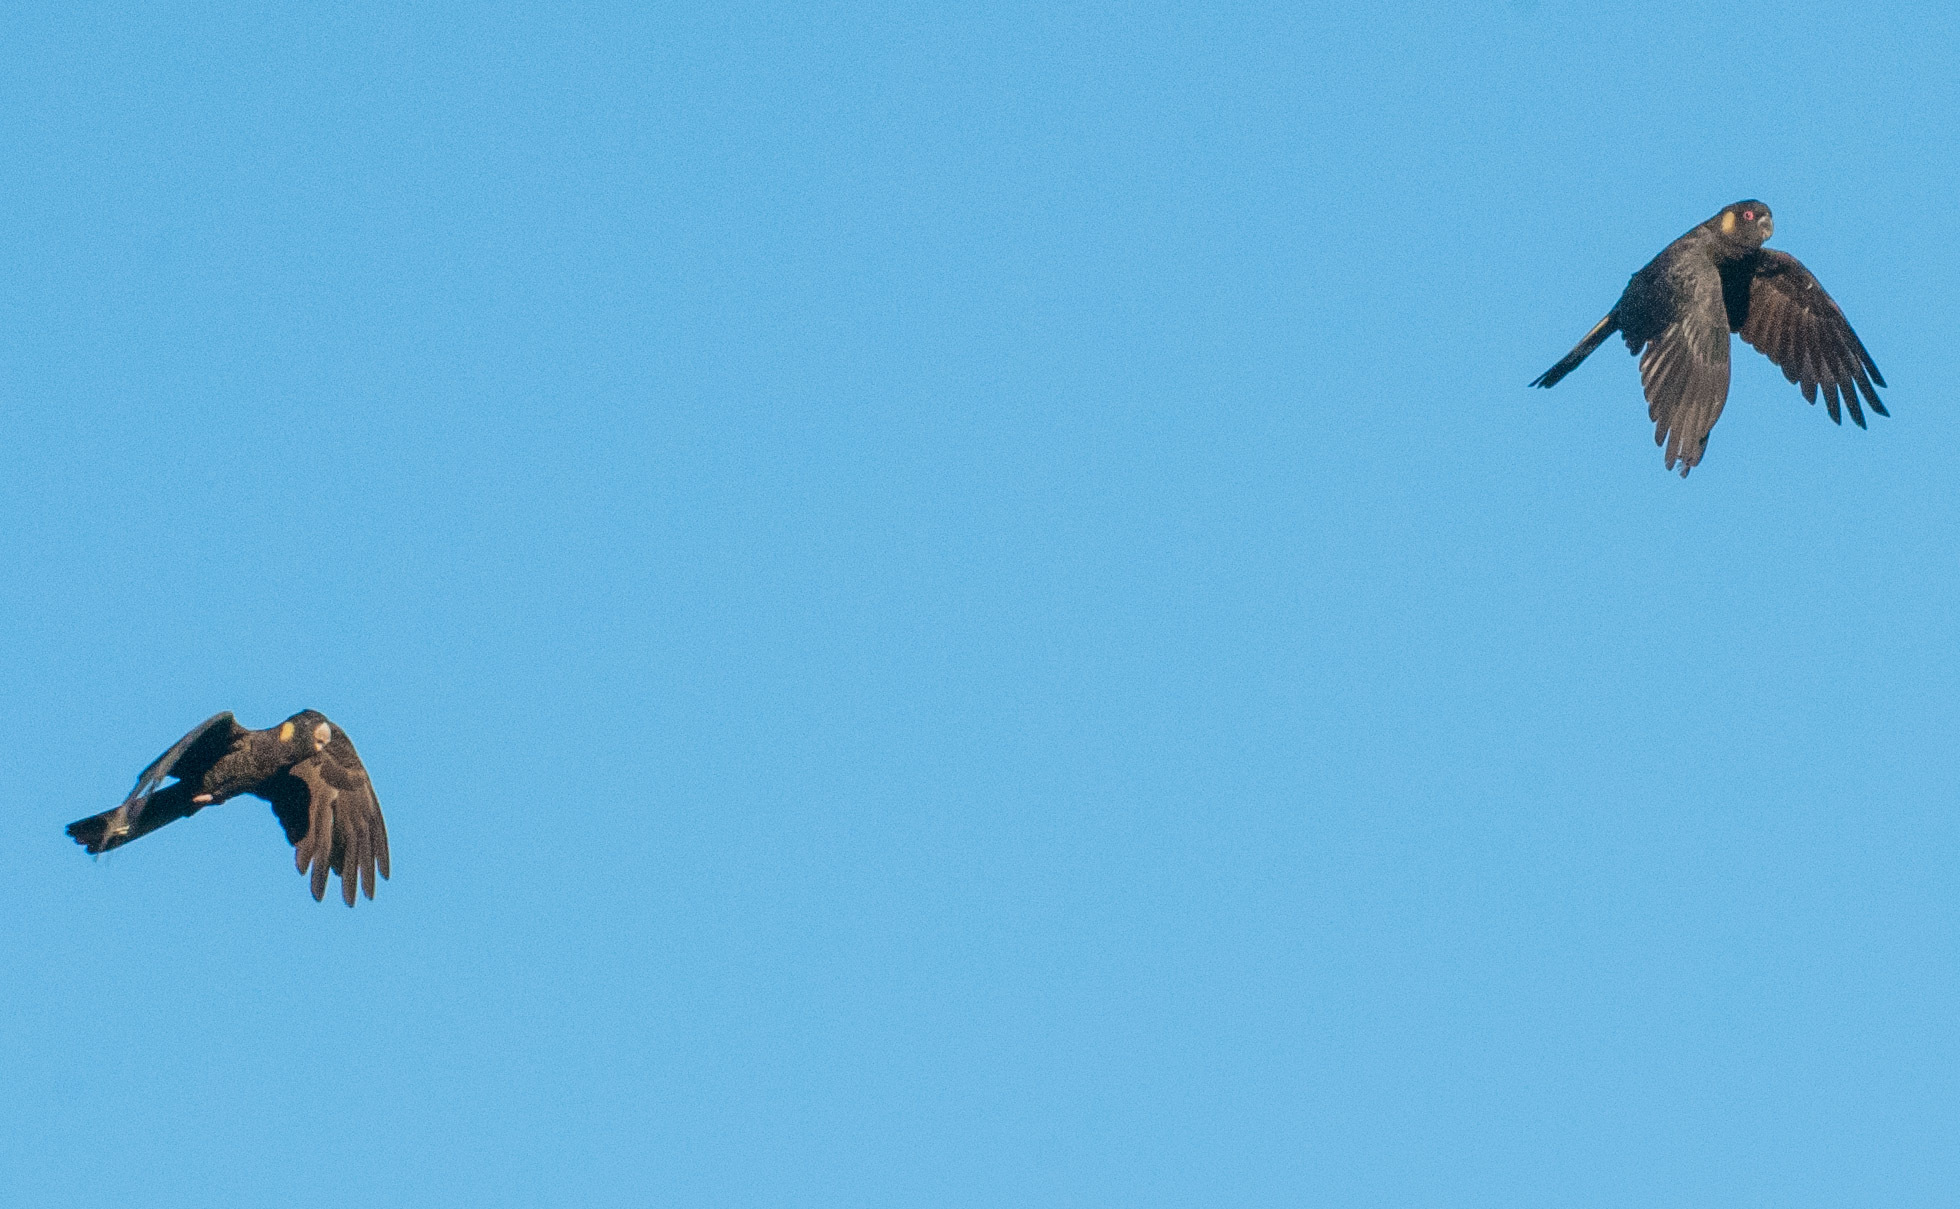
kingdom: Animalia
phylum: Chordata
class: Aves
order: Psittaciformes
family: Cacatuidae
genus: Zanda
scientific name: Zanda funerea
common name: Yellow-tailed black-cockatoo
